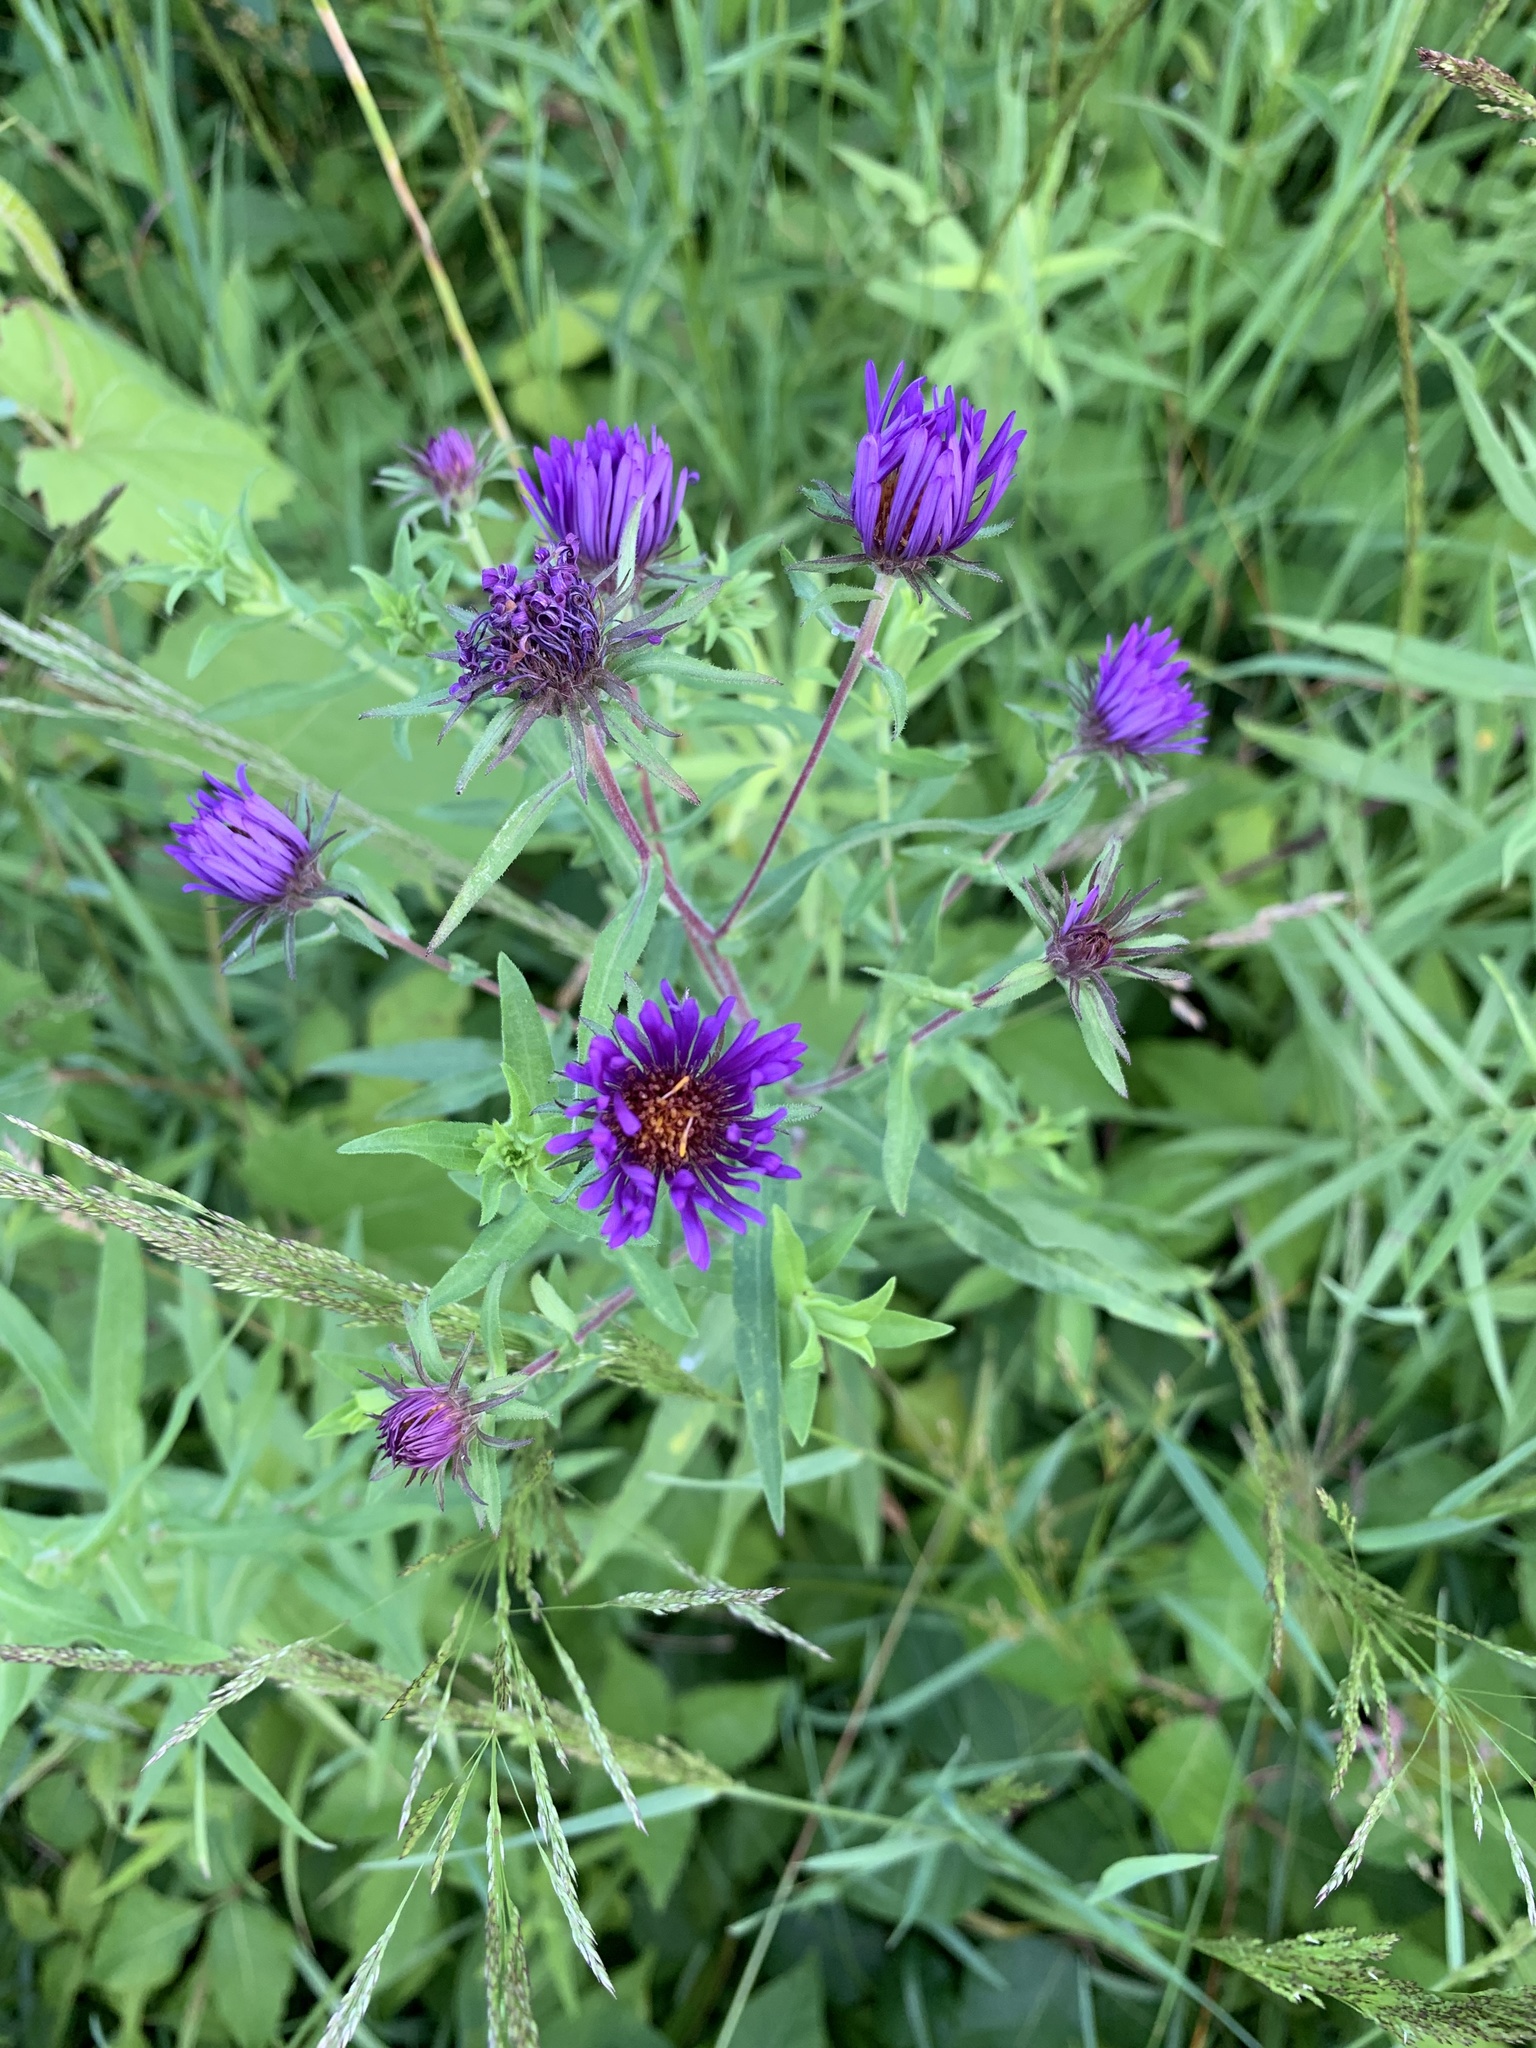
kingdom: Plantae
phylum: Tracheophyta
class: Magnoliopsida
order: Asterales
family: Asteraceae
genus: Symphyotrichum
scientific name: Symphyotrichum novae-angliae
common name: Michaelmas daisy
